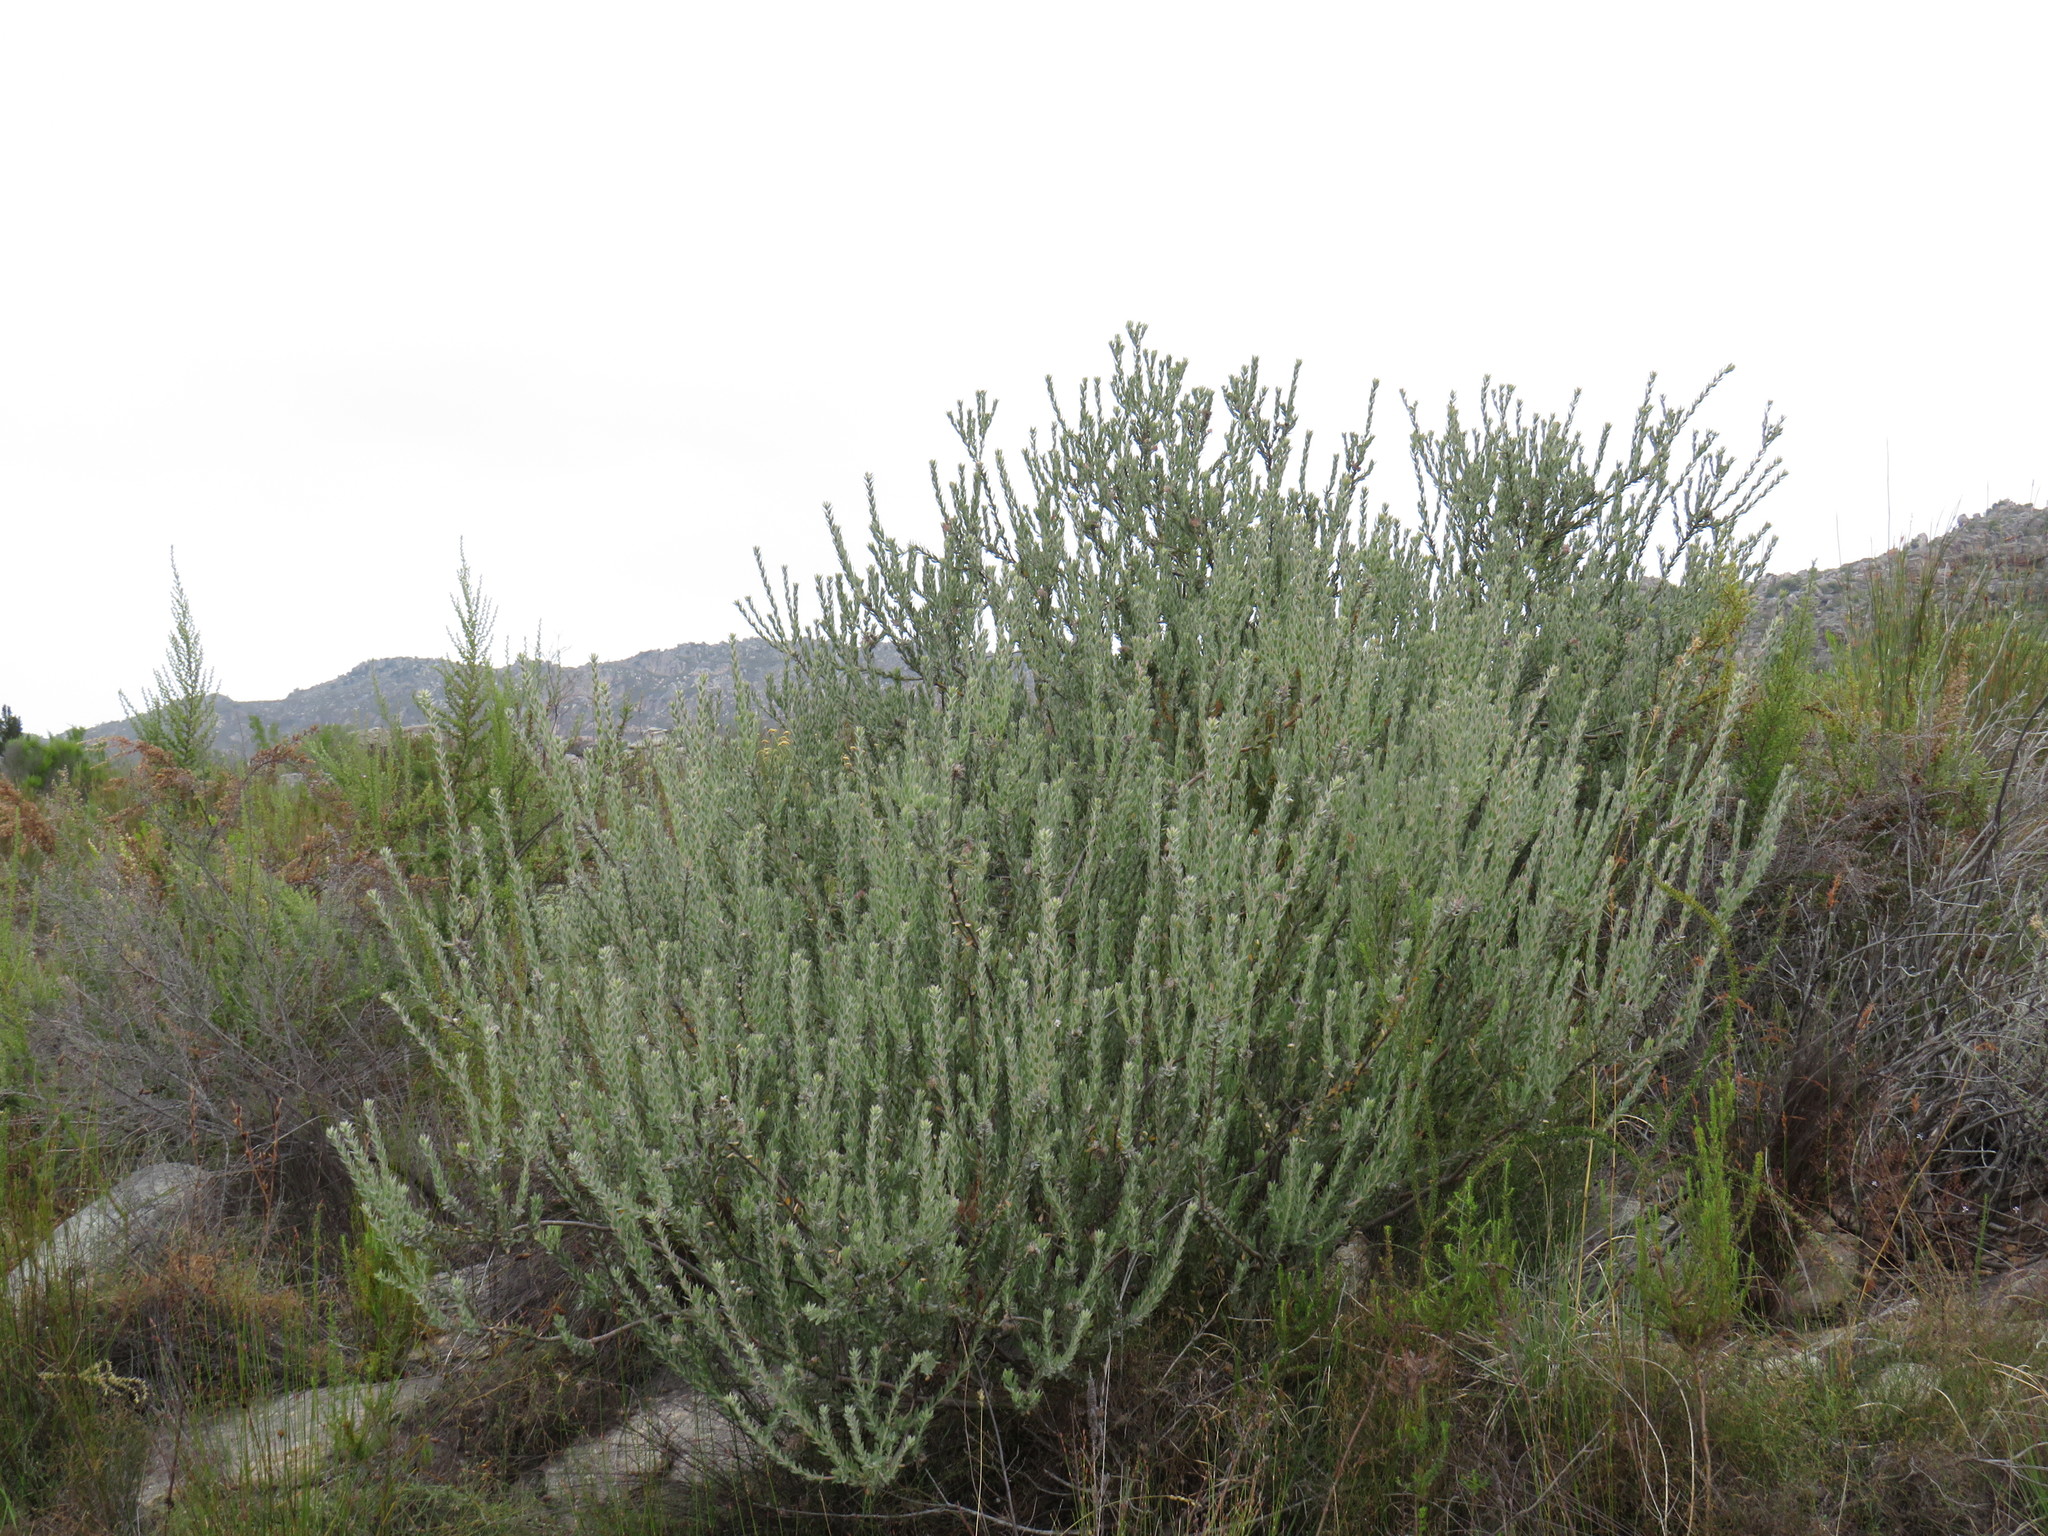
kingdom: Plantae
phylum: Tracheophyta
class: Magnoliopsida
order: Proteales
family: Proteaceae
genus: Leucospermum
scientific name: Leucospermum calligerum
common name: Arid pincushion
